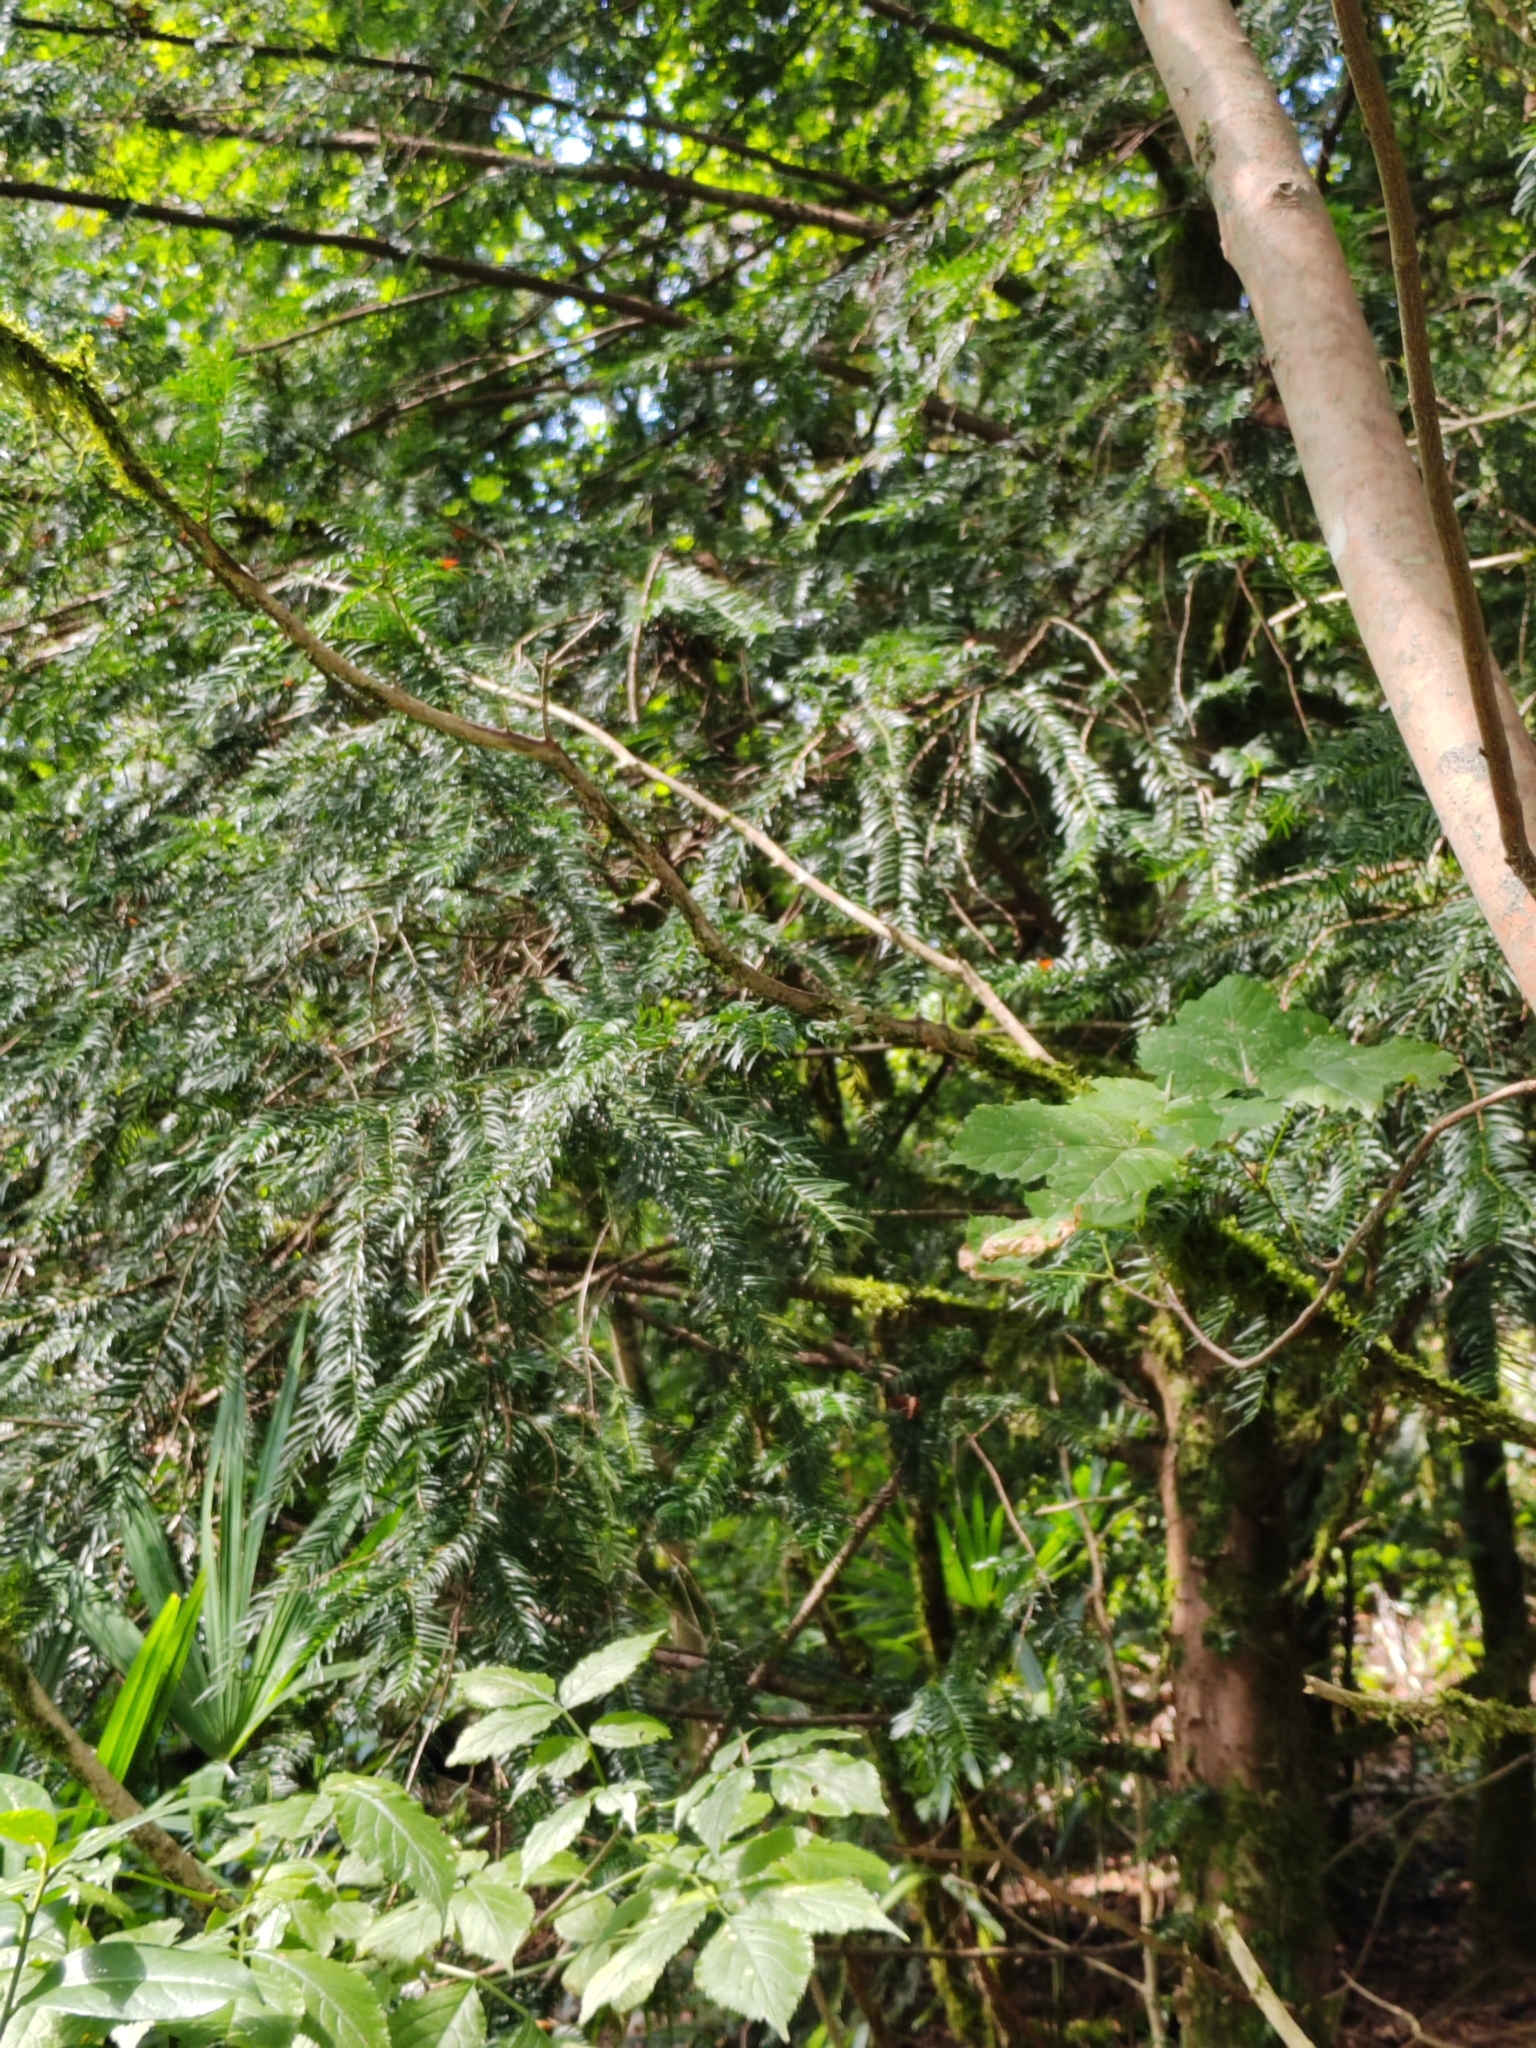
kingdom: Plantae
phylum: Tracheophyta
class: Pinopsida
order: Pinales
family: Taxaceae
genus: Taxus
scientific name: Taxus baccata
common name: Yew
